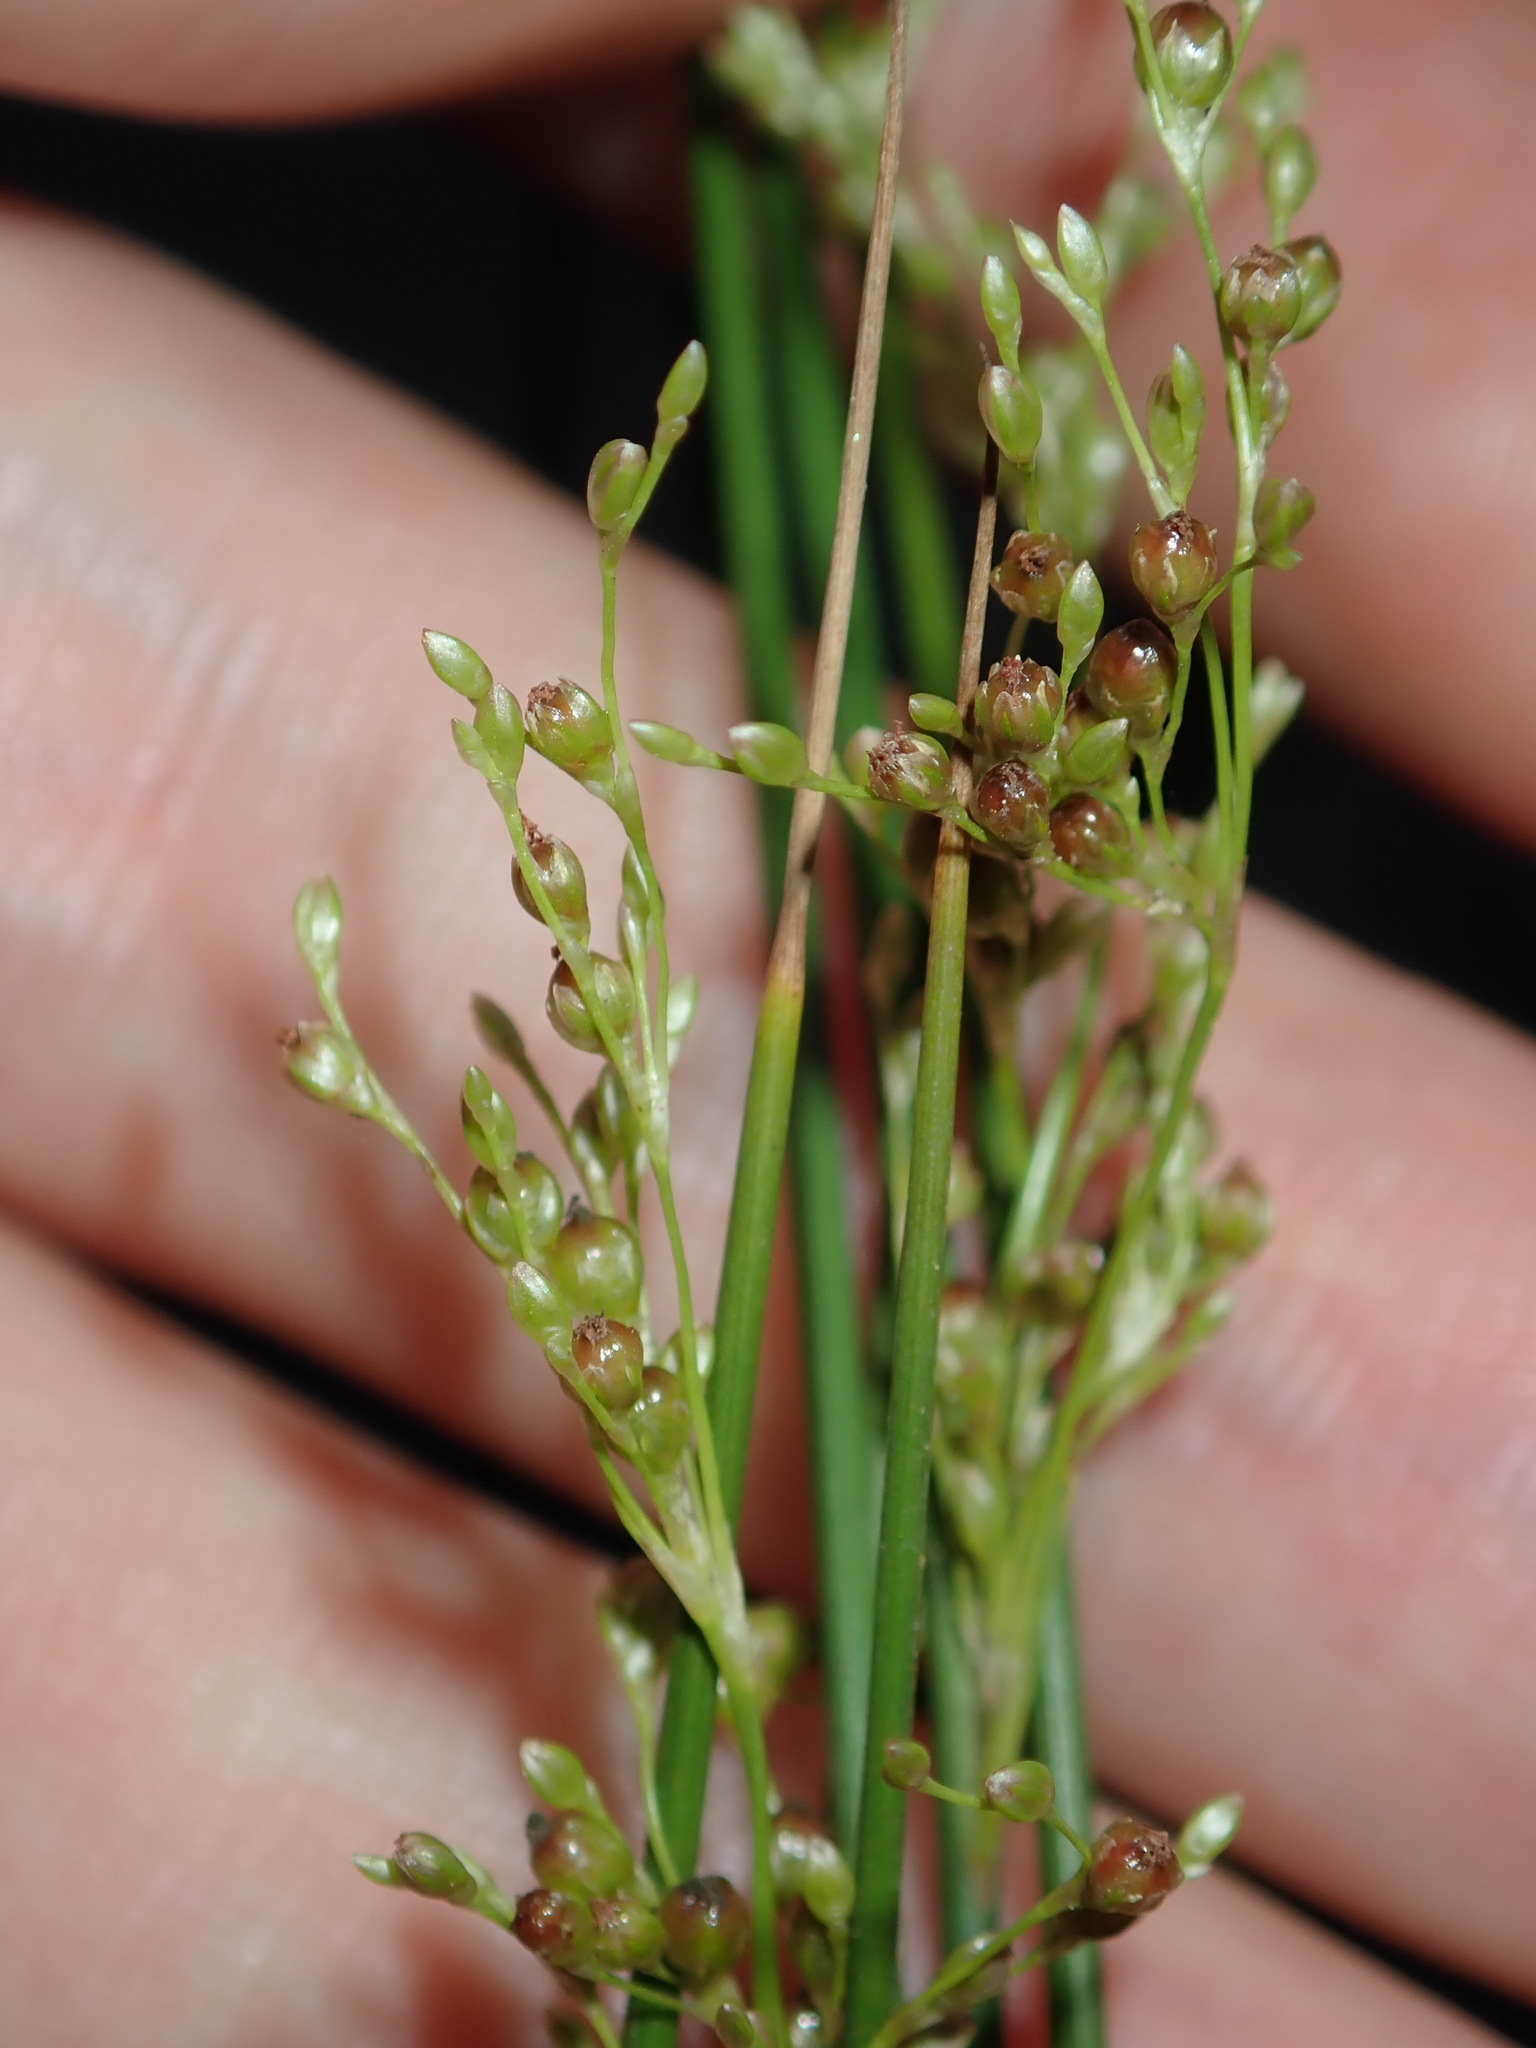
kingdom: Plantae
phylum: Tracheophyta
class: Liliopsida
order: Poales
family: Juncaceae
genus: Juncus
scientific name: Juncus usitatus
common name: Rush
